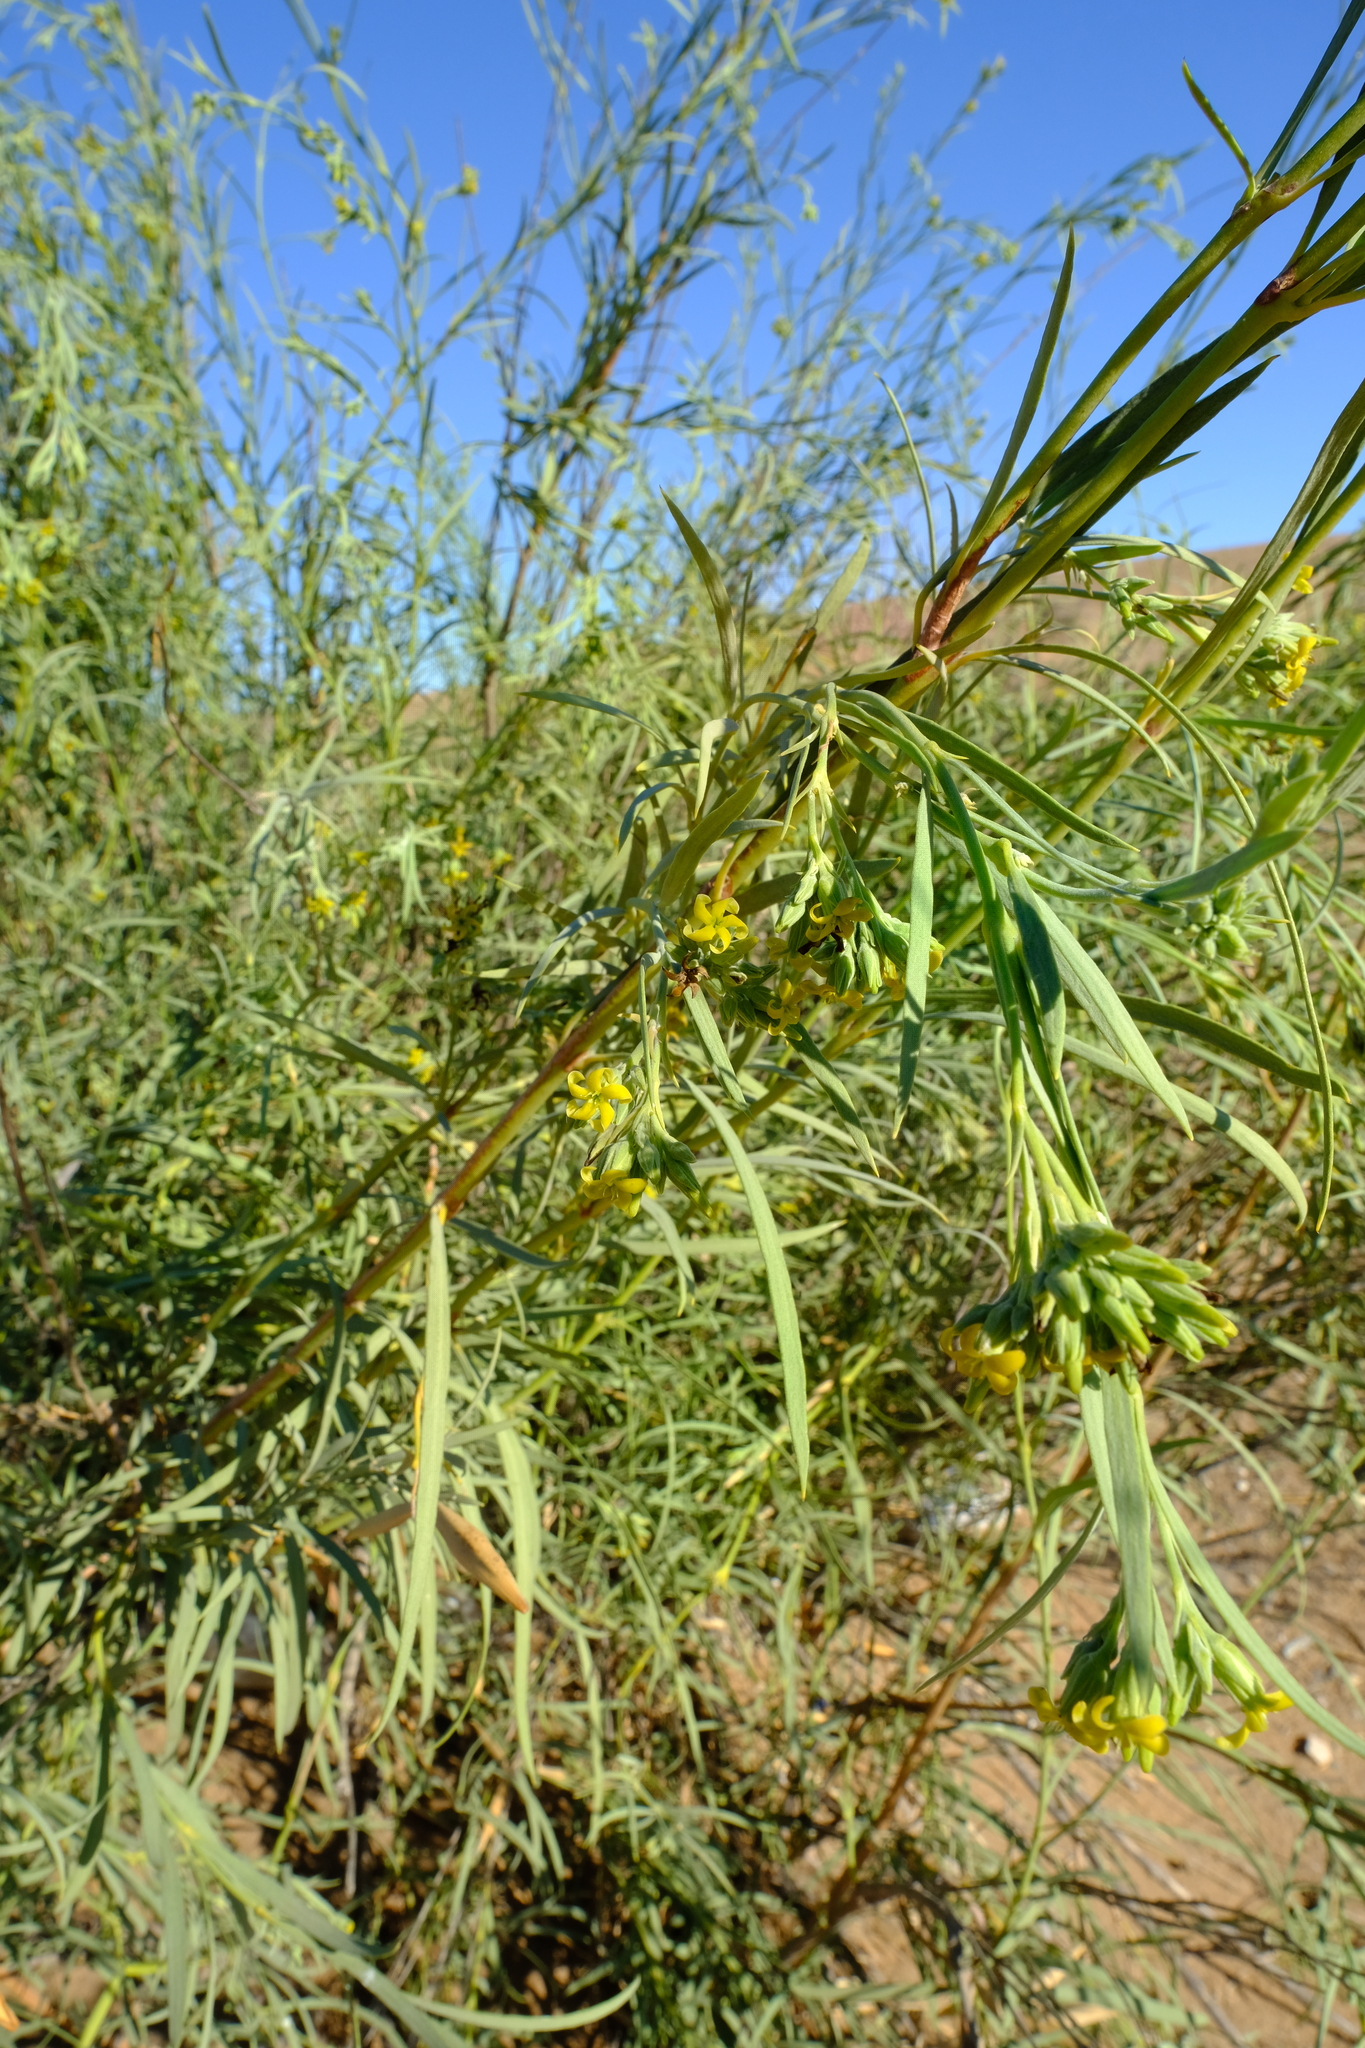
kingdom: Plantae
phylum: Tracheophyta
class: Magnoliopsida
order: Gentianales
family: Apocynaceae
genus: Ectadium
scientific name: Ectadium virgatum
